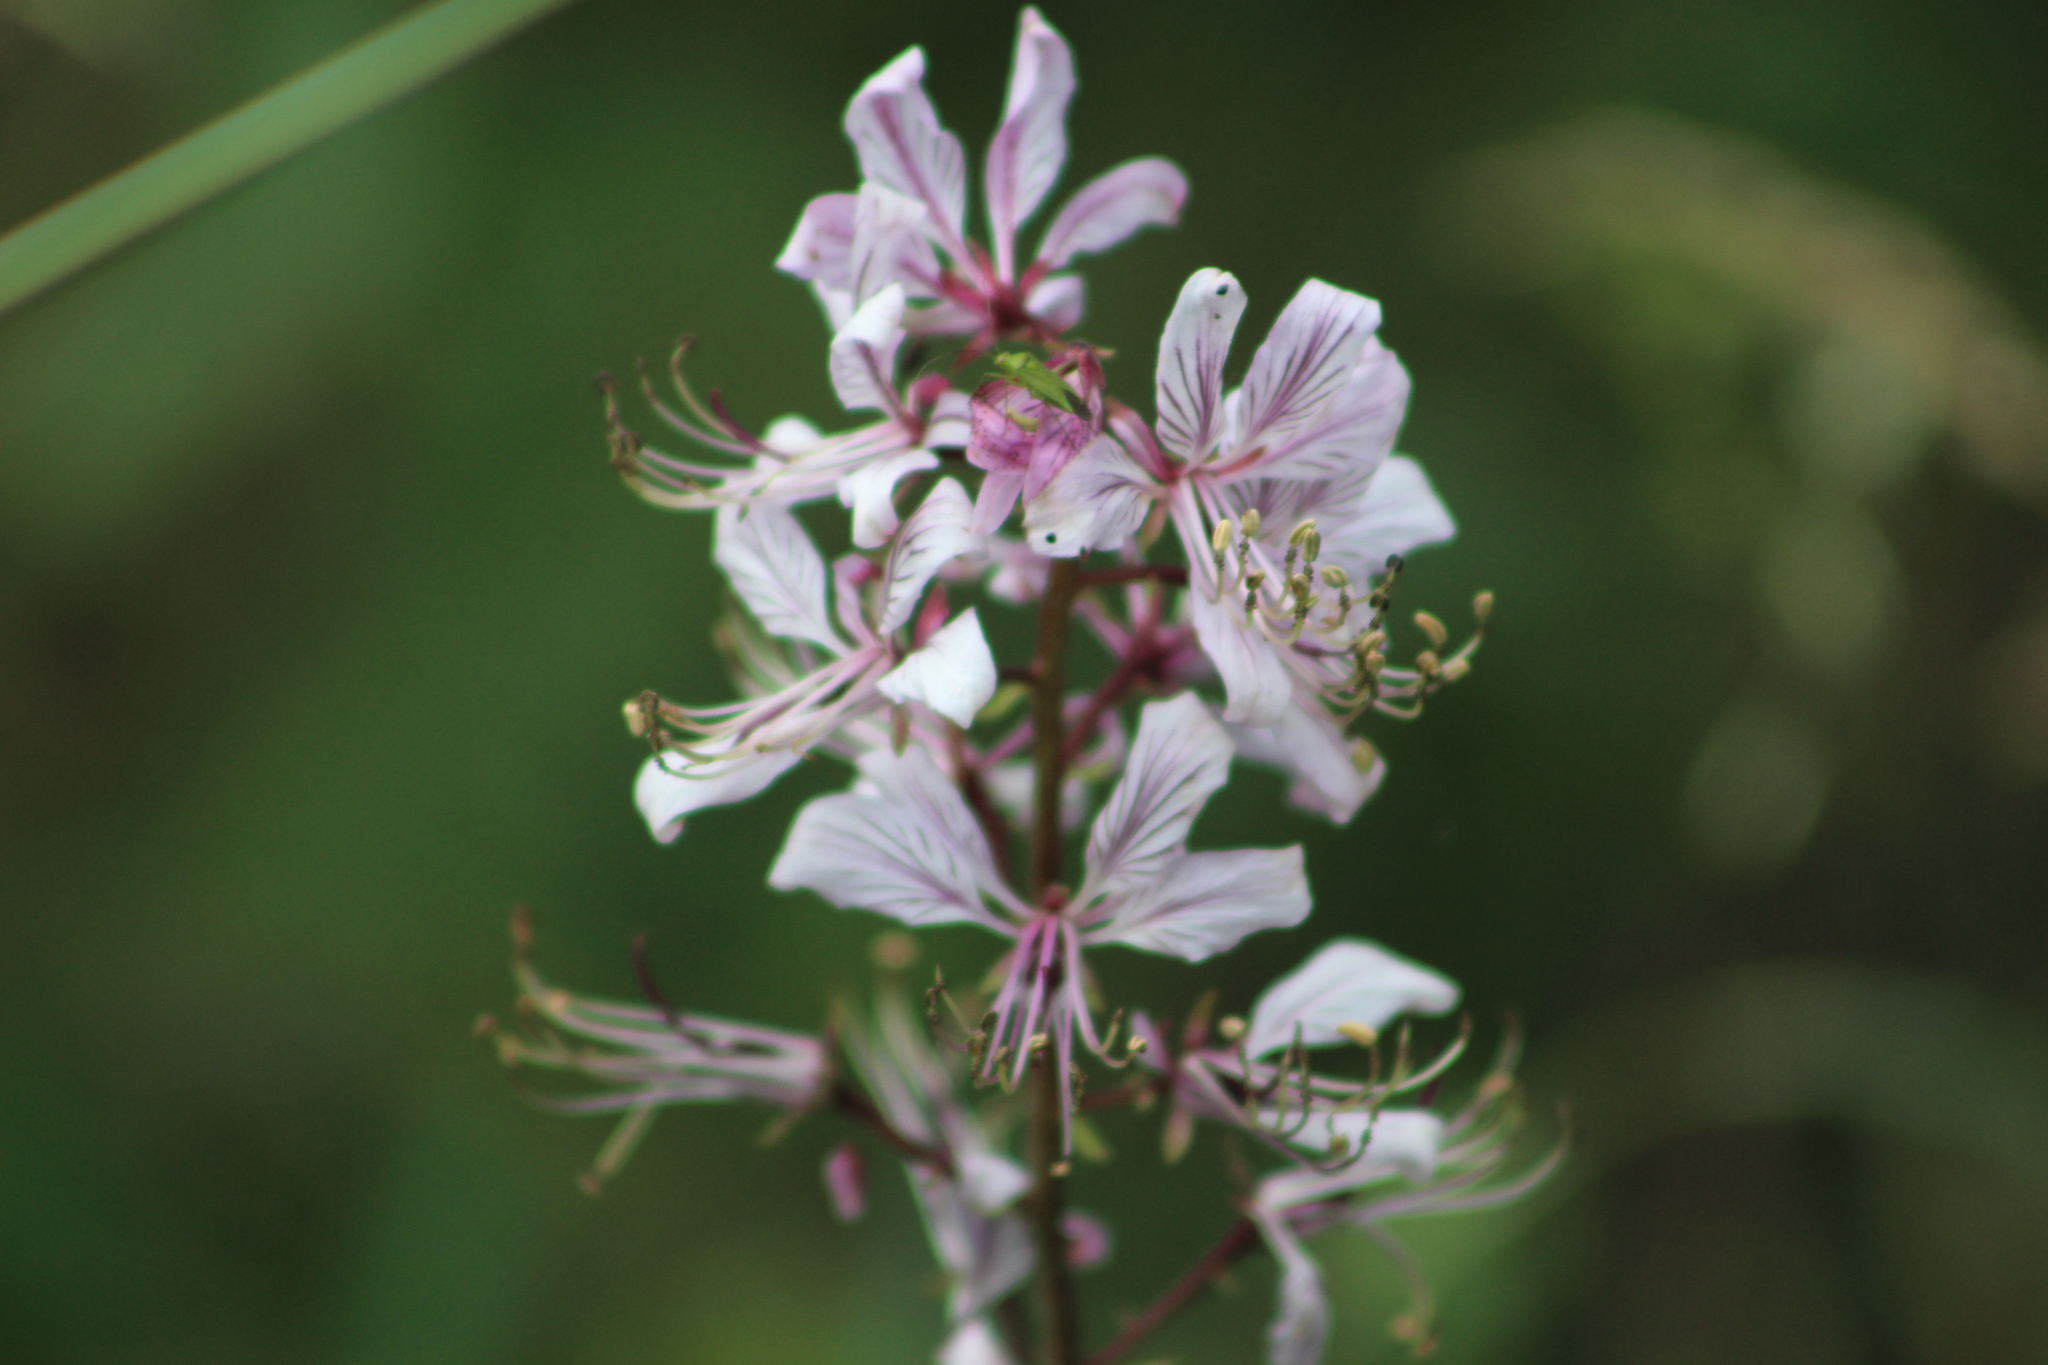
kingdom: Plantae
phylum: Tracheophyta
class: Magnoliopsida
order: Sapindales
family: Rutaceae
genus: Dictamnus
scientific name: Dictamnus albus
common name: Gasplant
